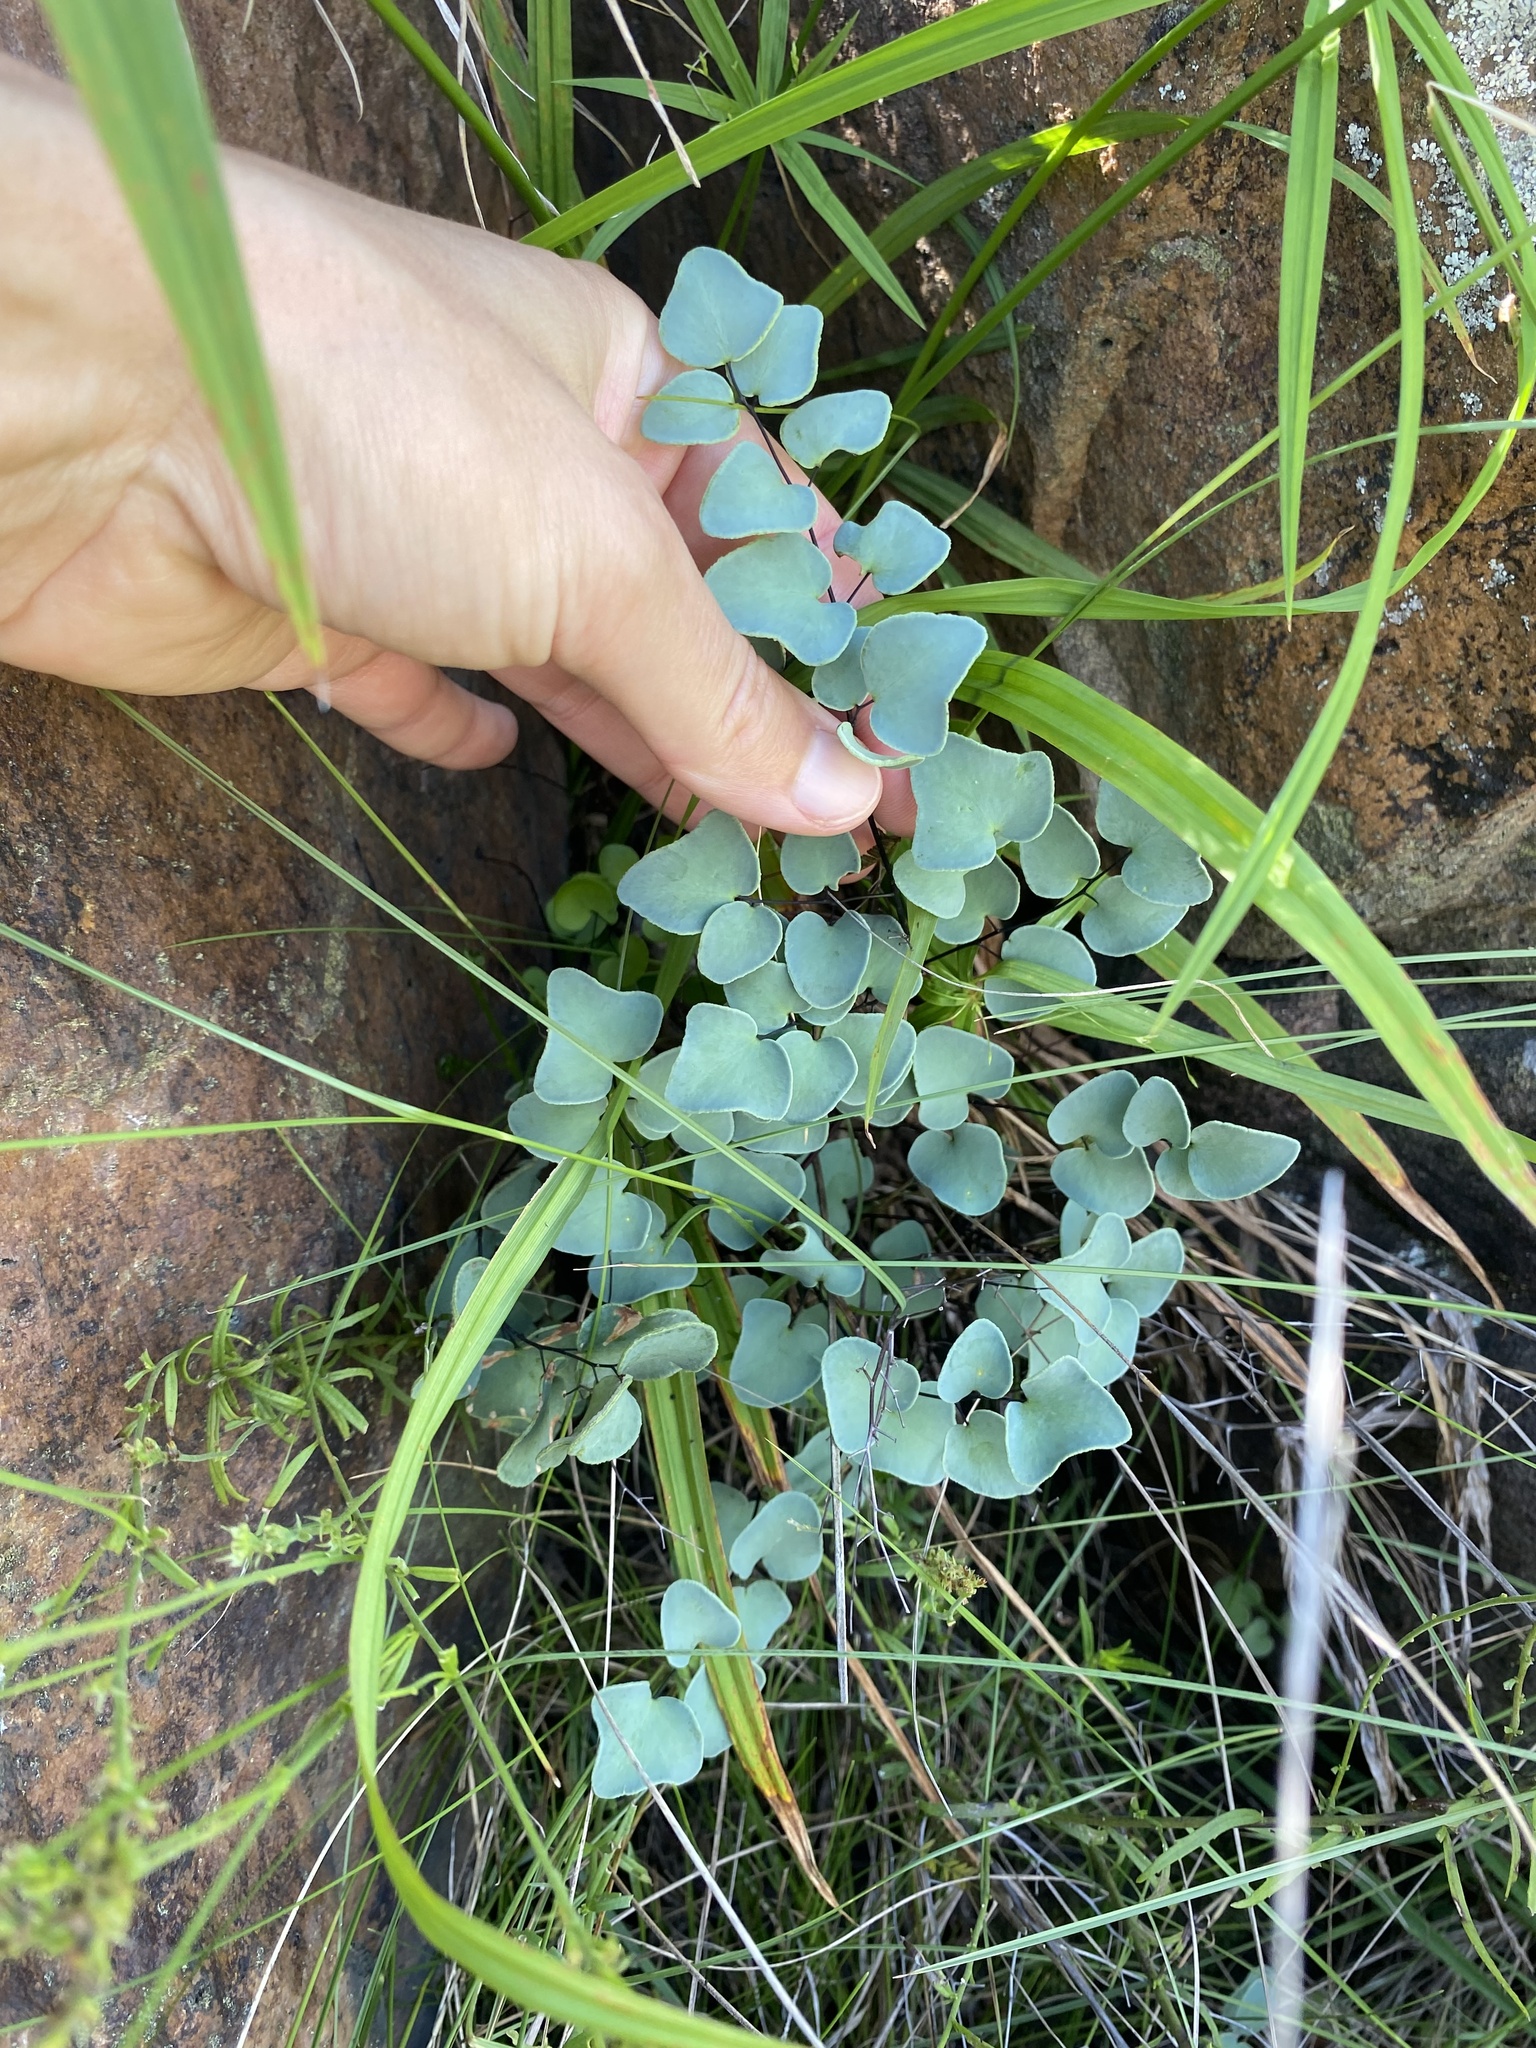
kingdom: Plantae
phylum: Tracheophyta
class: Polypodiopsida
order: Polypodiales
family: Pteridaceae
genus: Pellaea
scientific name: Pellaea calomelanos
